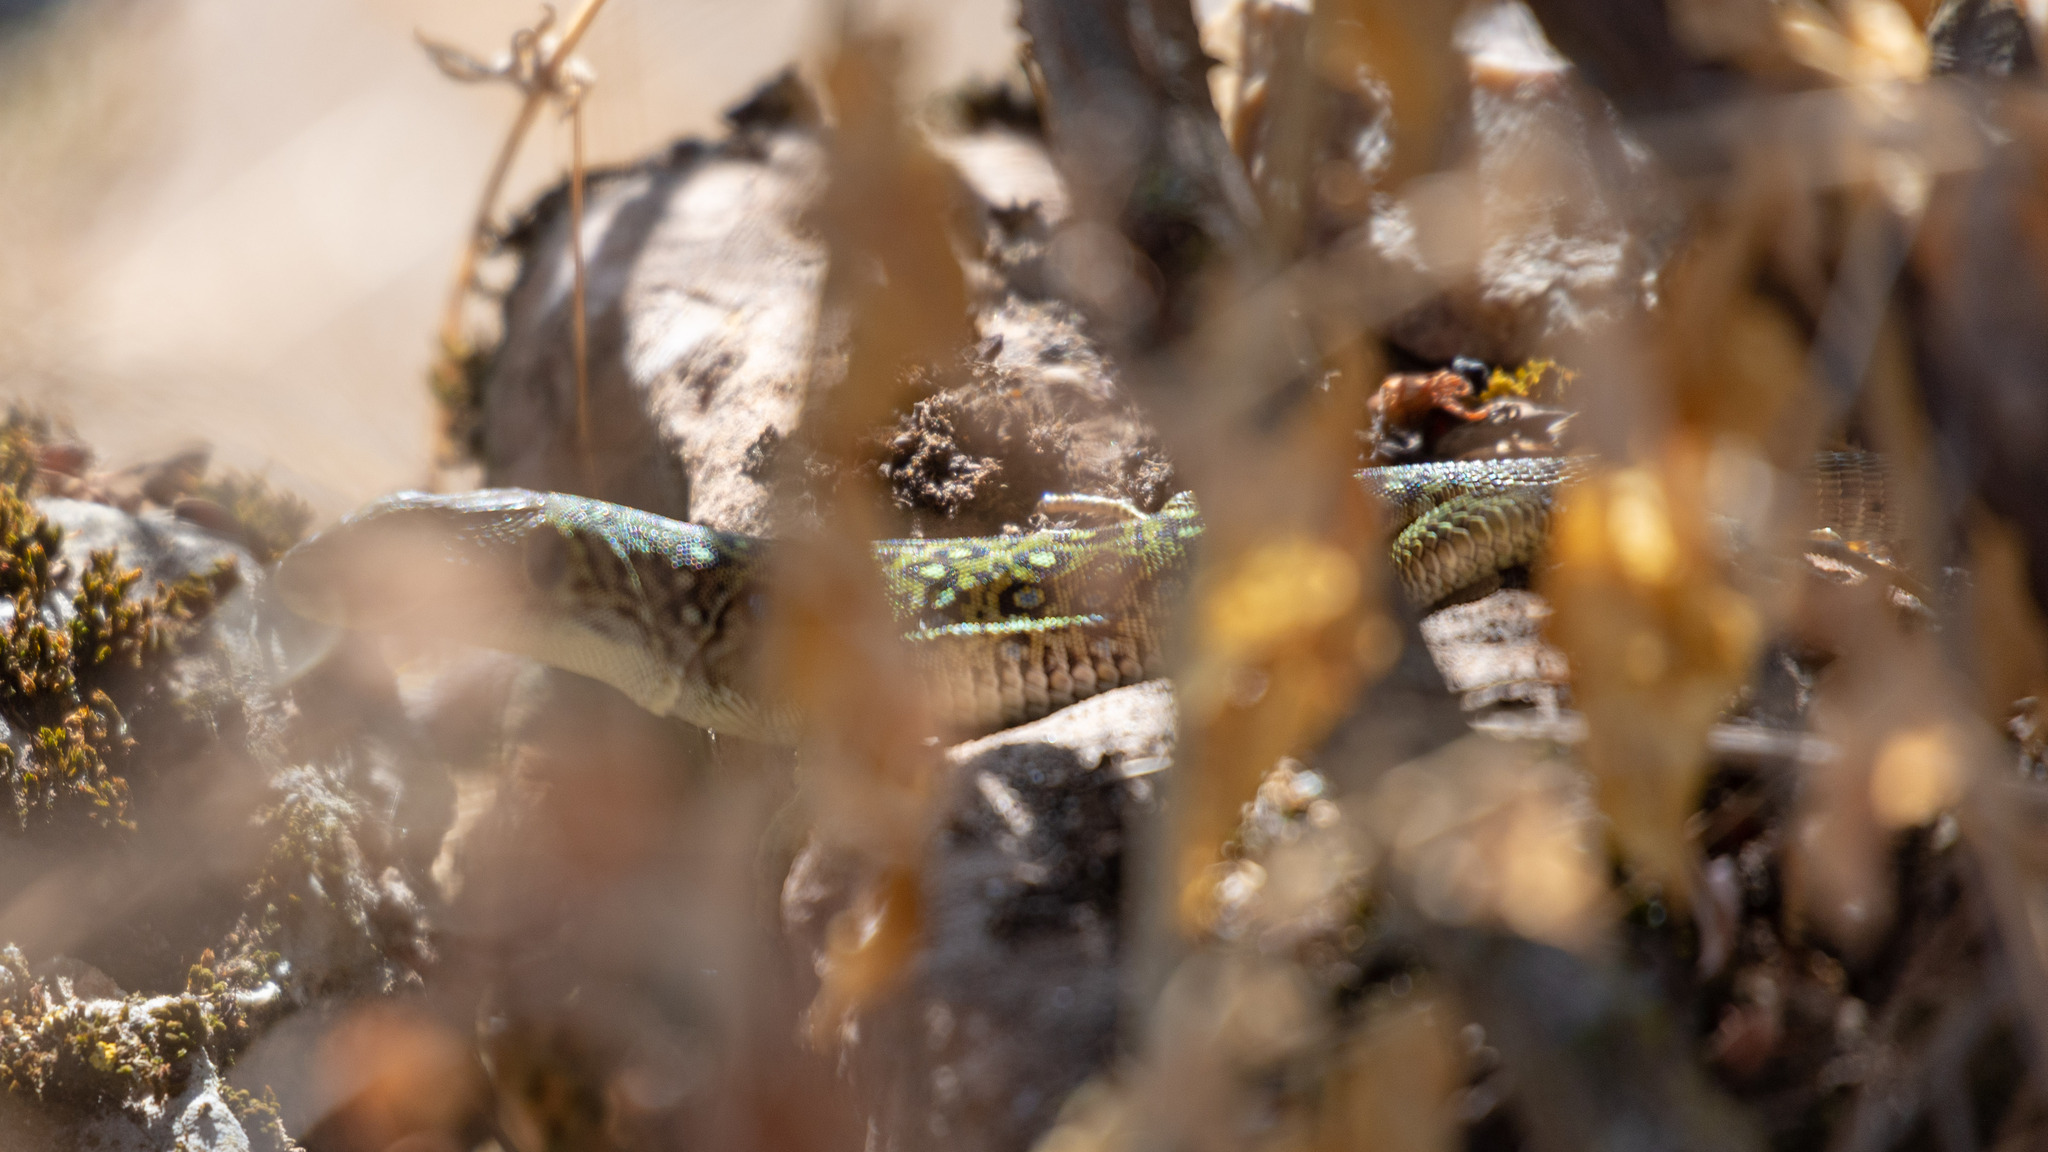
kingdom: Animalia
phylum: Chordata
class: Squamata
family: Lacertidae
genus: Timon
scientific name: Timon lepidus
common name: Ocellated lizard
